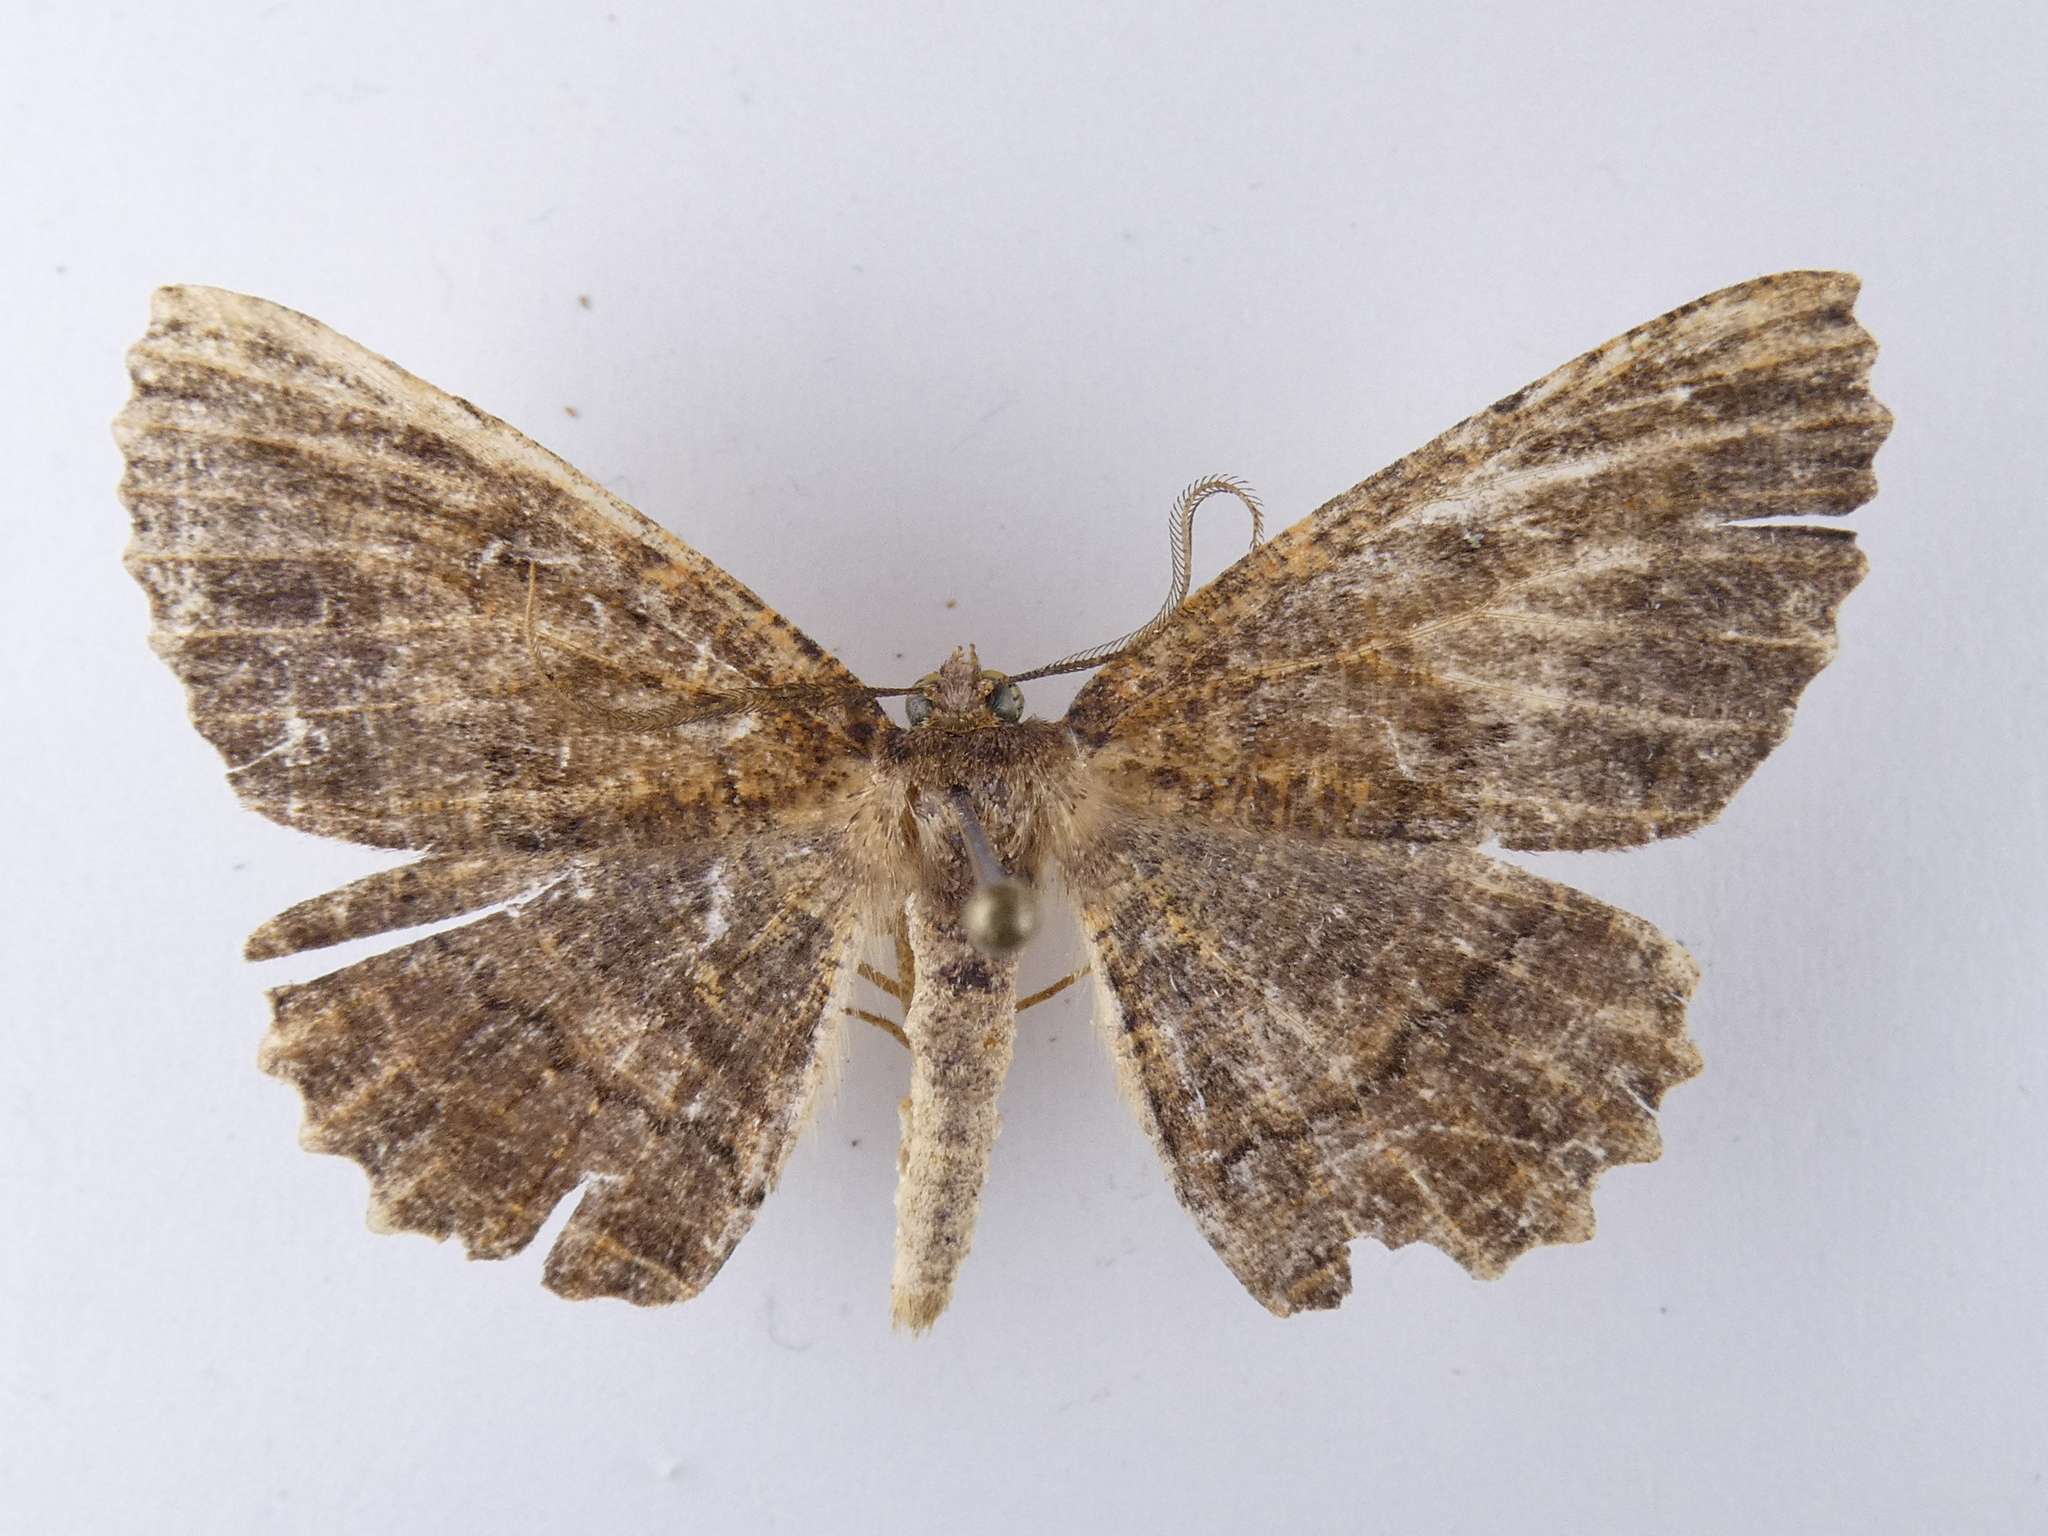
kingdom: Animalia
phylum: Arthropoda
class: Insecta
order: Lepidoptera
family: Geometridae
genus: Gellonia
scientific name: Gellonia dejectaria
